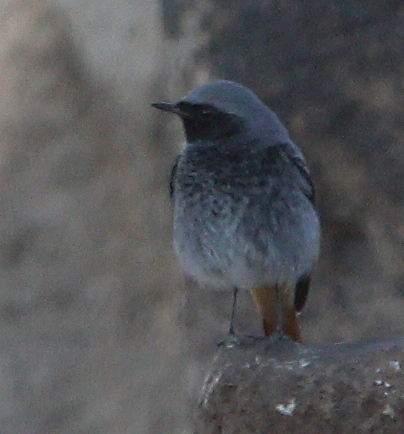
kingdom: Animalia
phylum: Chordata
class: Aves
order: Passeriformes
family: Muscicapidae
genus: Phoenicurus
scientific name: Phoenicurus ochruros
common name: Black redstart
